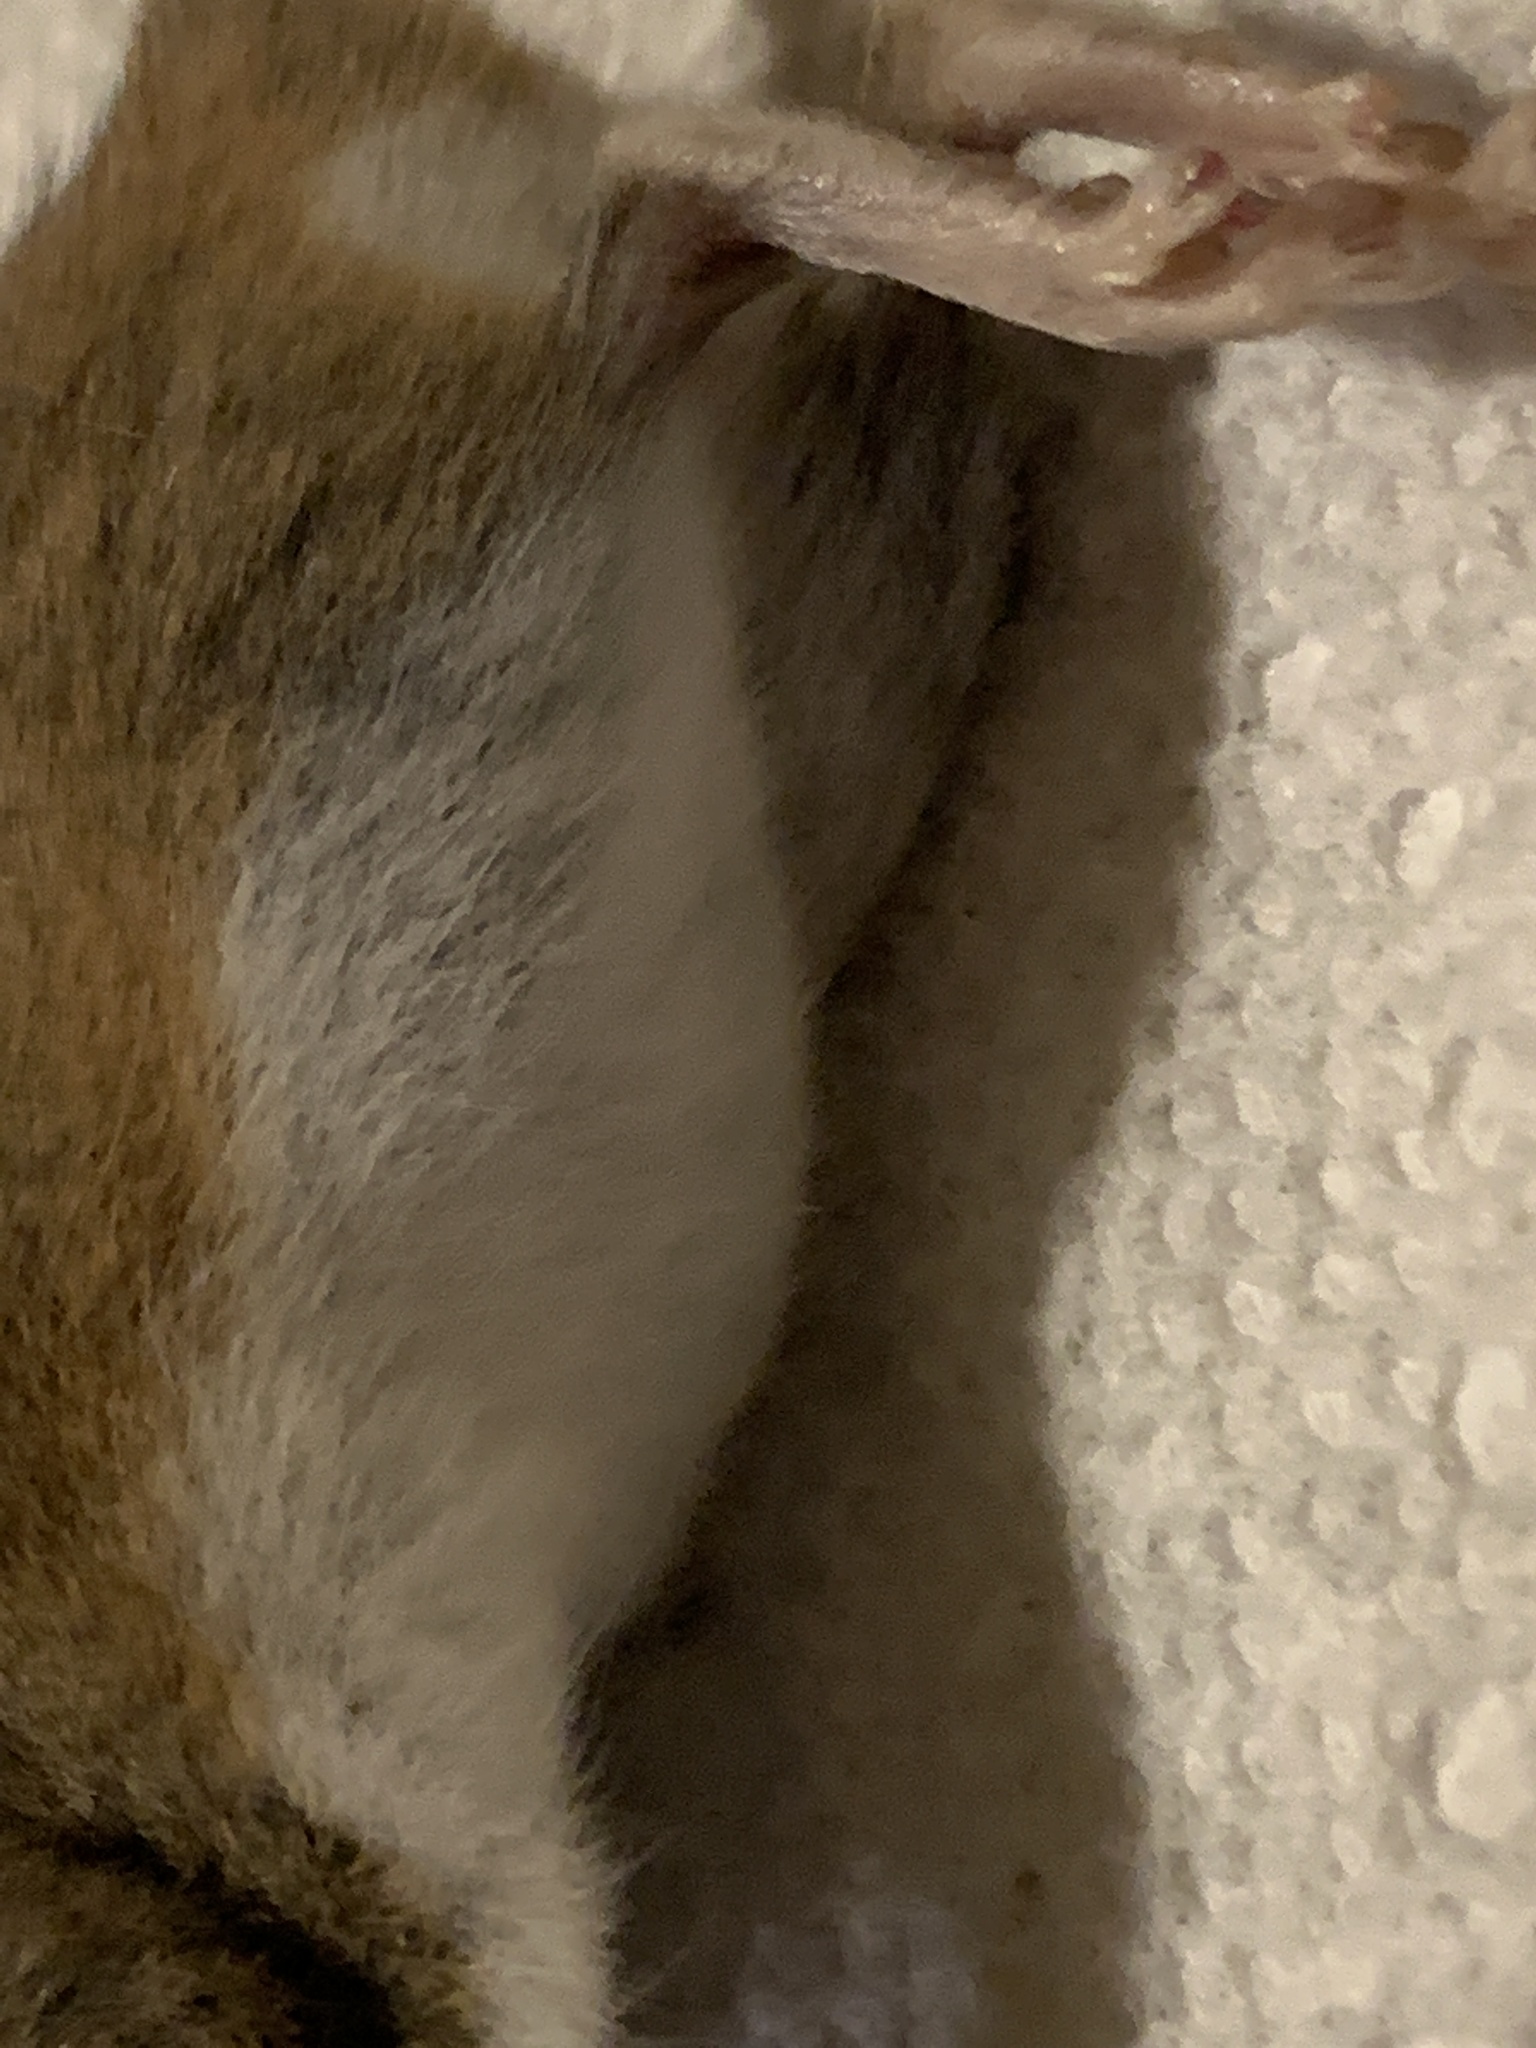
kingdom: Animalia
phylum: Chordata
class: Mammalia
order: Rodentia
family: Cricetidae
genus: Peromyscus
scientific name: Peromyscus maniculatus
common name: Deer mouse
